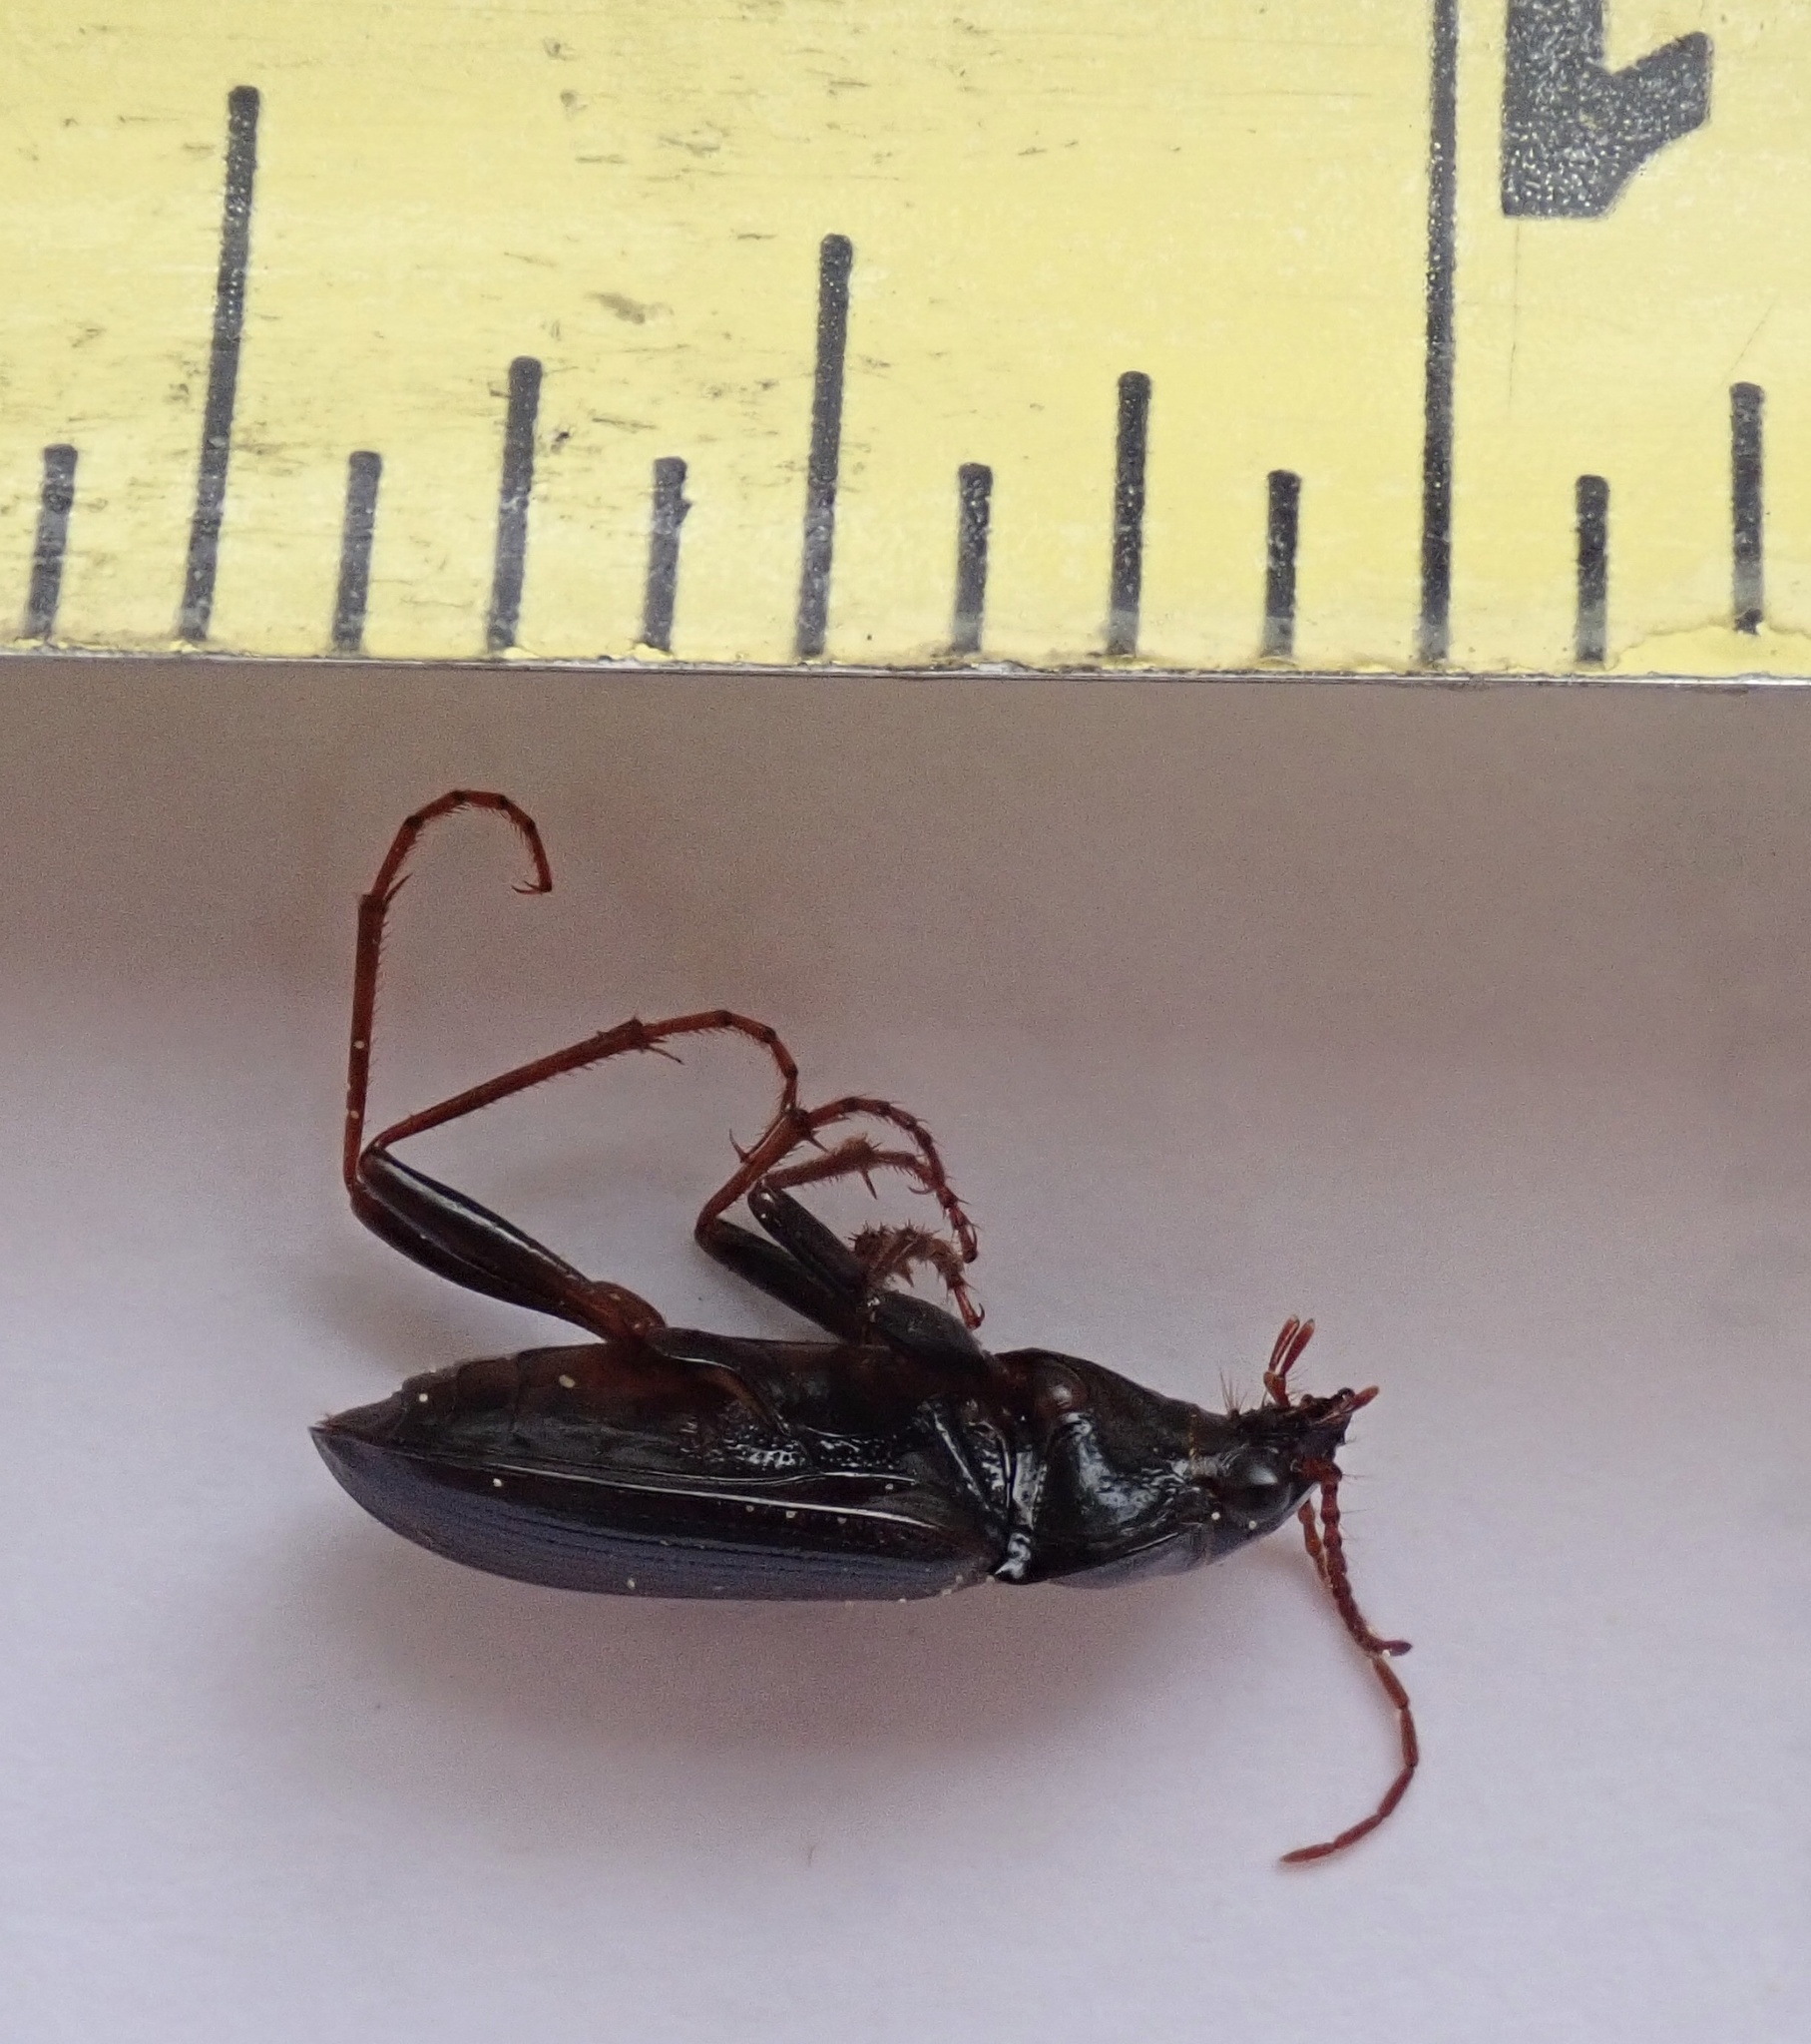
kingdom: Animalia
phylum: Arthropoda
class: Insecta
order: Coleoptera
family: Carabidae
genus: Nebria
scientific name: Nebria brevicollis
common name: Short-necked gazelle beetle
